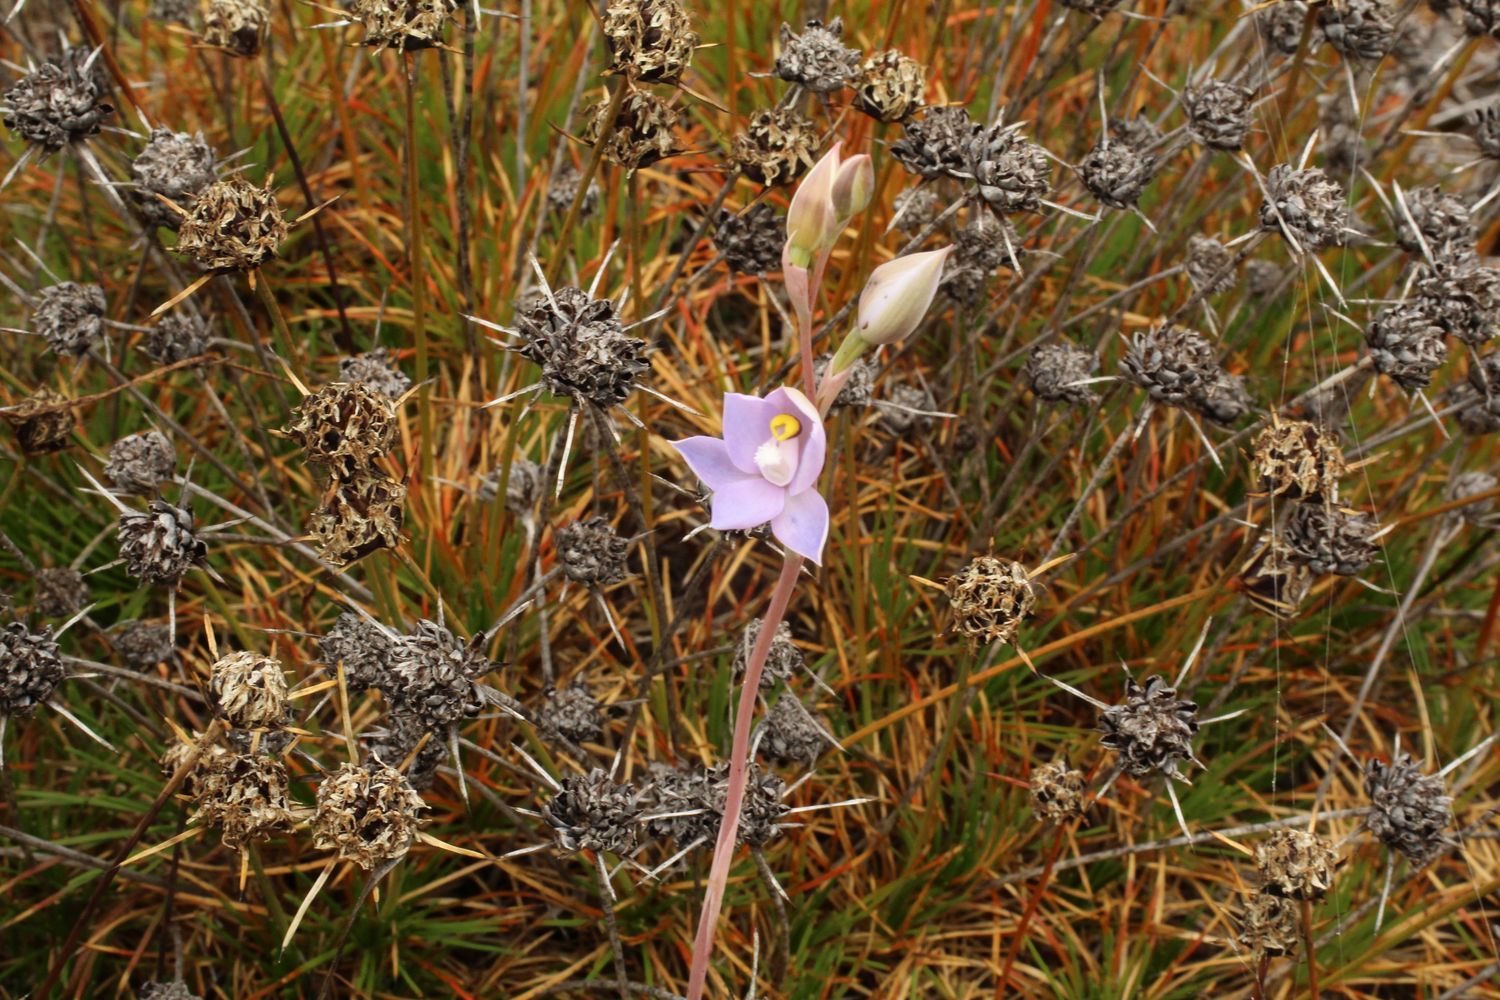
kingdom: Plantae
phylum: Tracheophyta
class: Liliopsida
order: Asparagales
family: Orchidaceae
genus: Thelymitra
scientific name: Thelymitra petrophila
